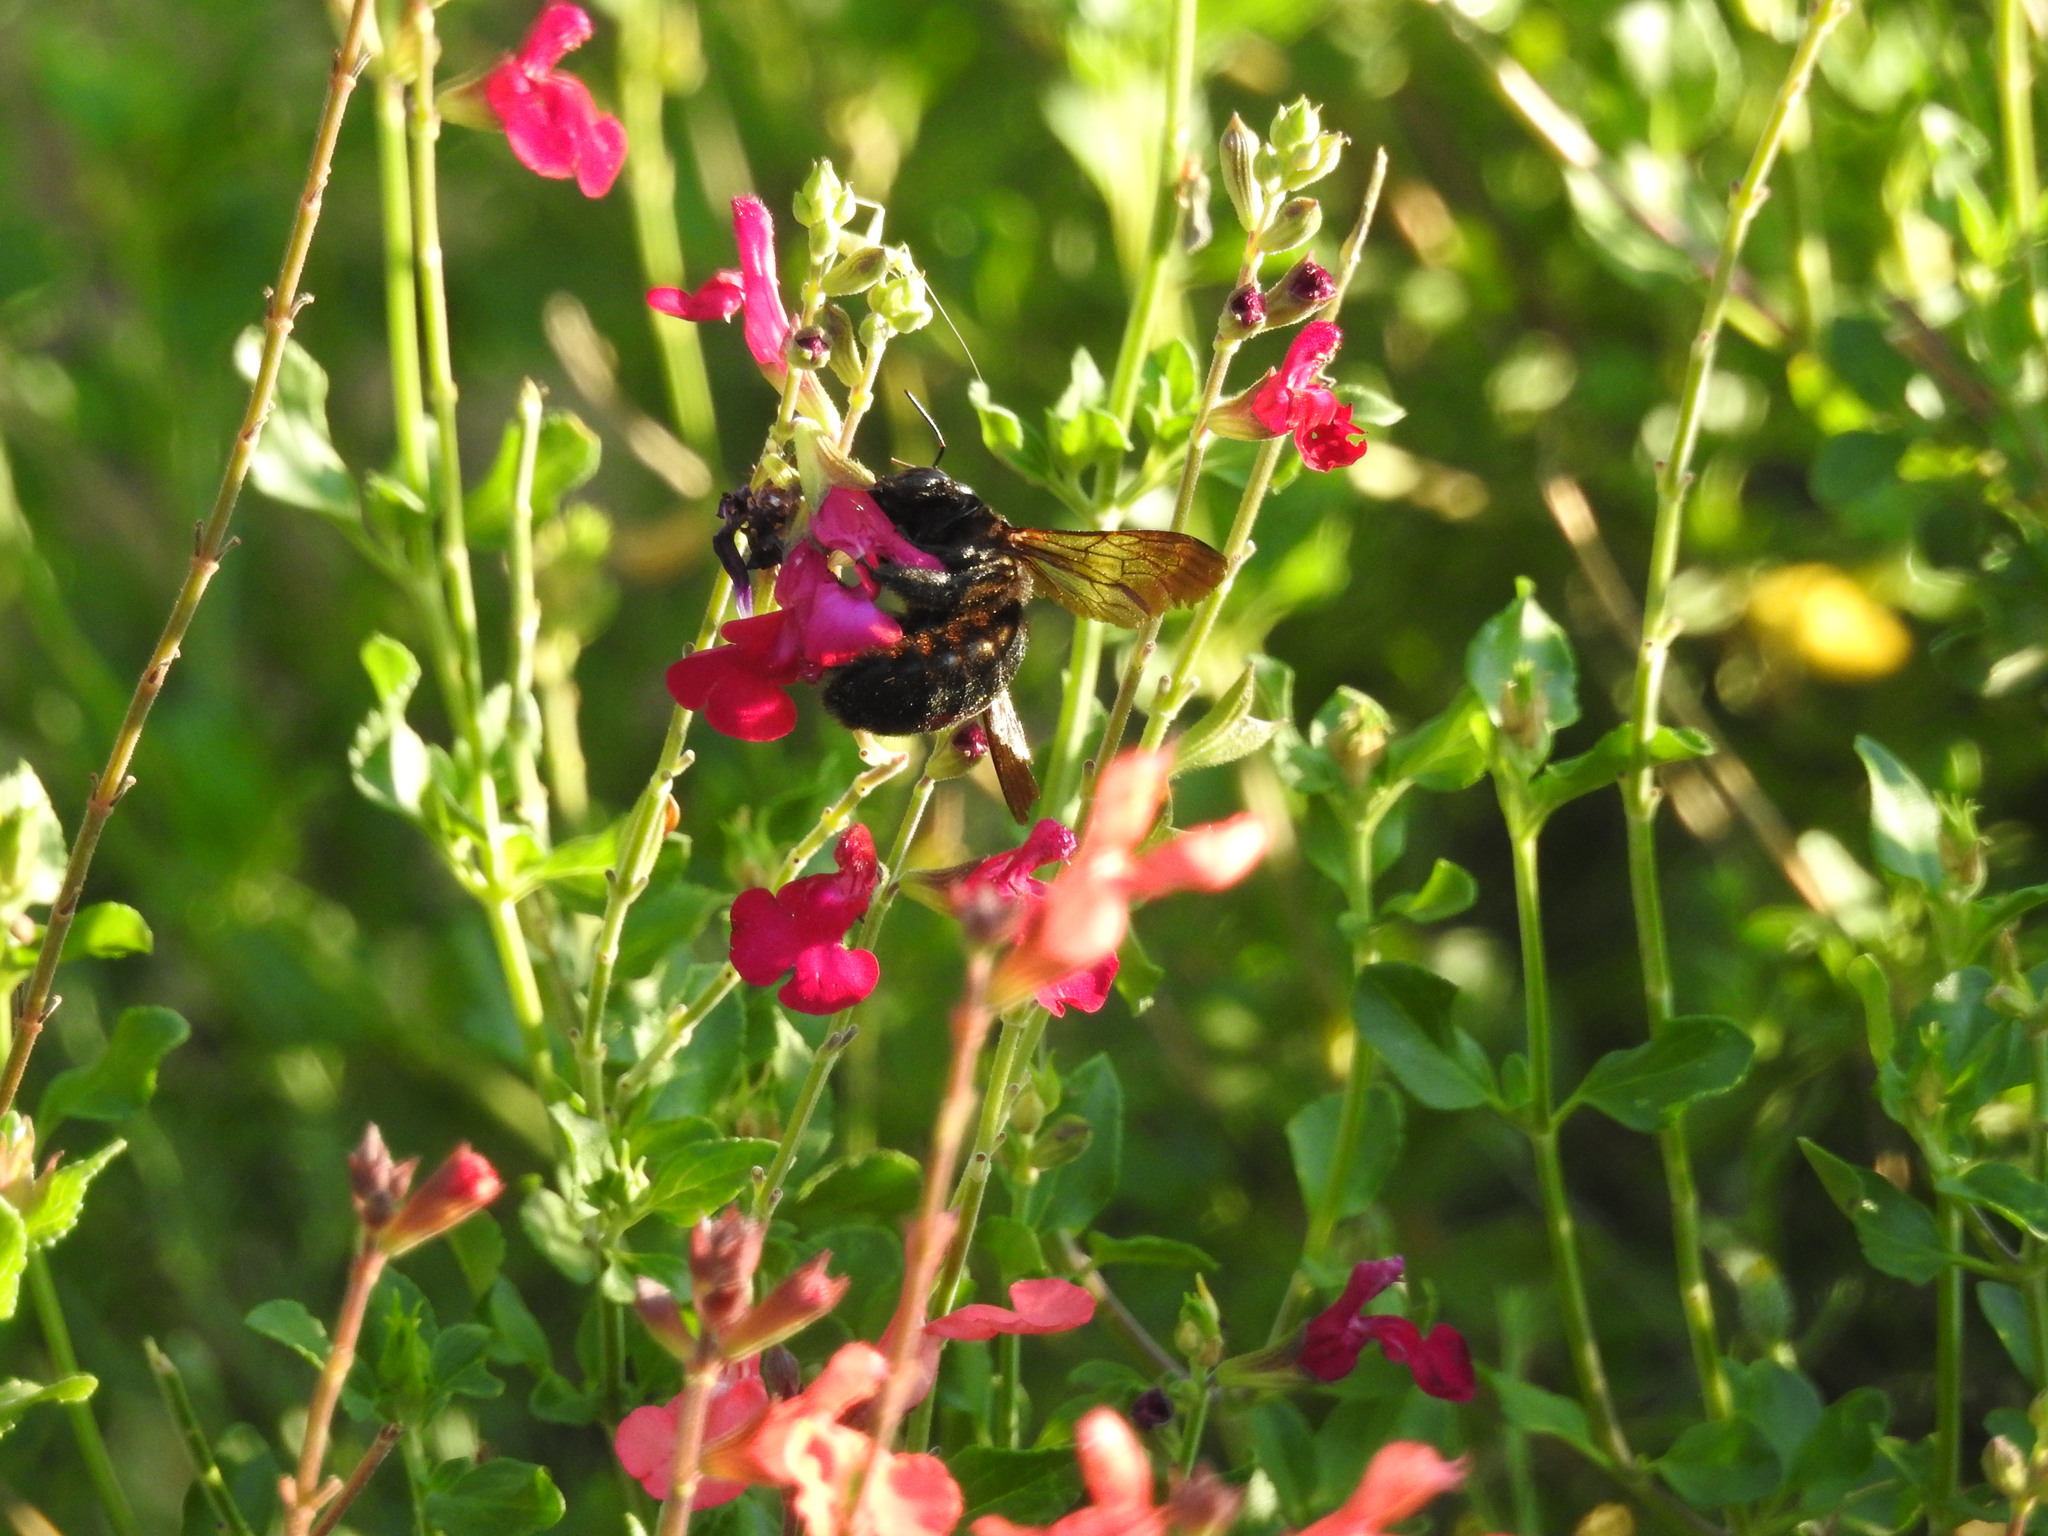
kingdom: Animalia
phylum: Arthropoda
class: Insecta
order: Hymenoptera
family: Apidae
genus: Xylocopa
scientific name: Xylocopa sonorina
